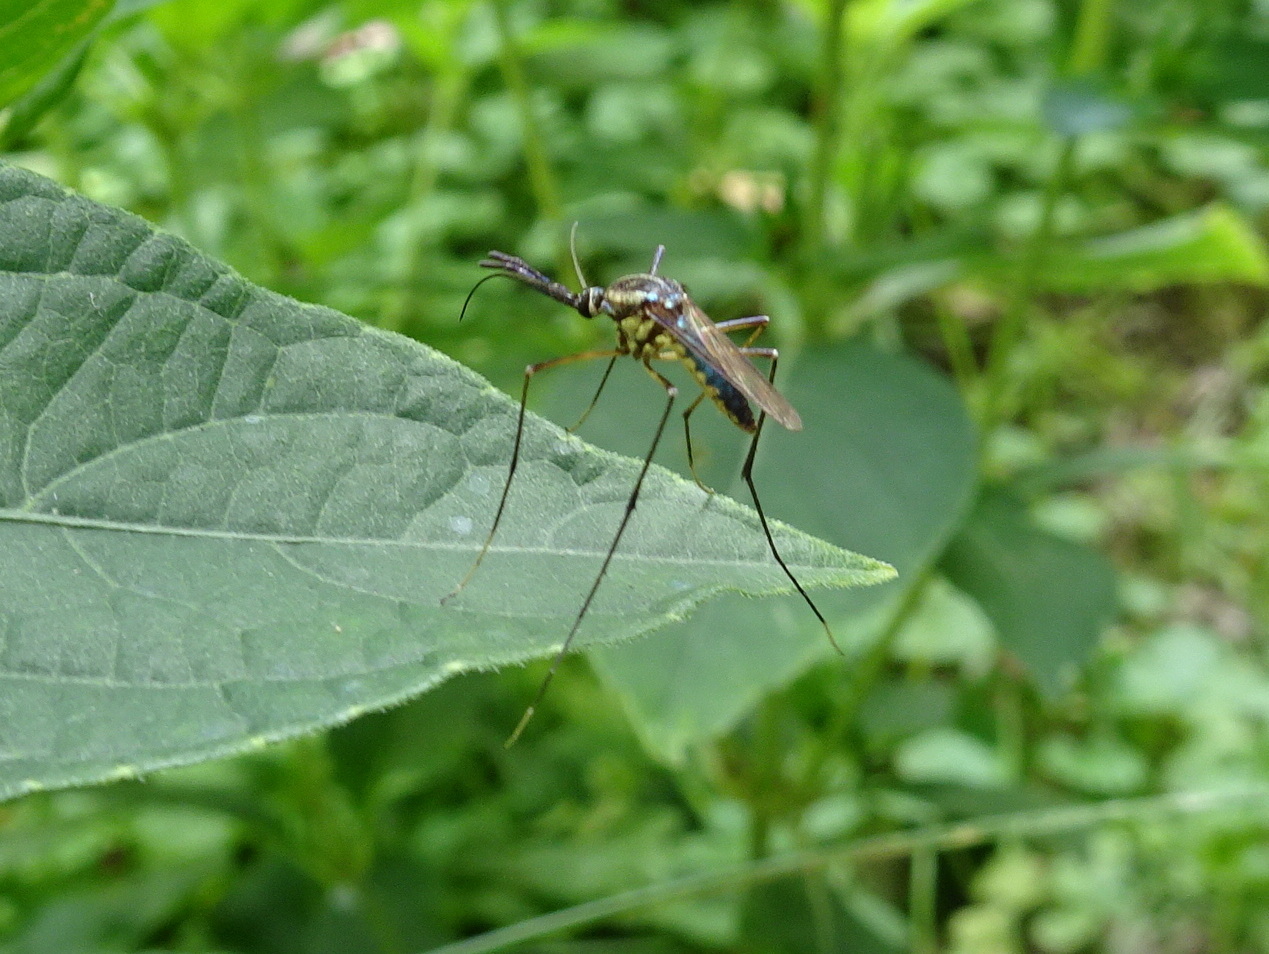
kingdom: Animalia
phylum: Arthropoda
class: Insecta
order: Diptera
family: Culicidae
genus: Toxorhynchites
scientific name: Toxorhynchites rutilus
